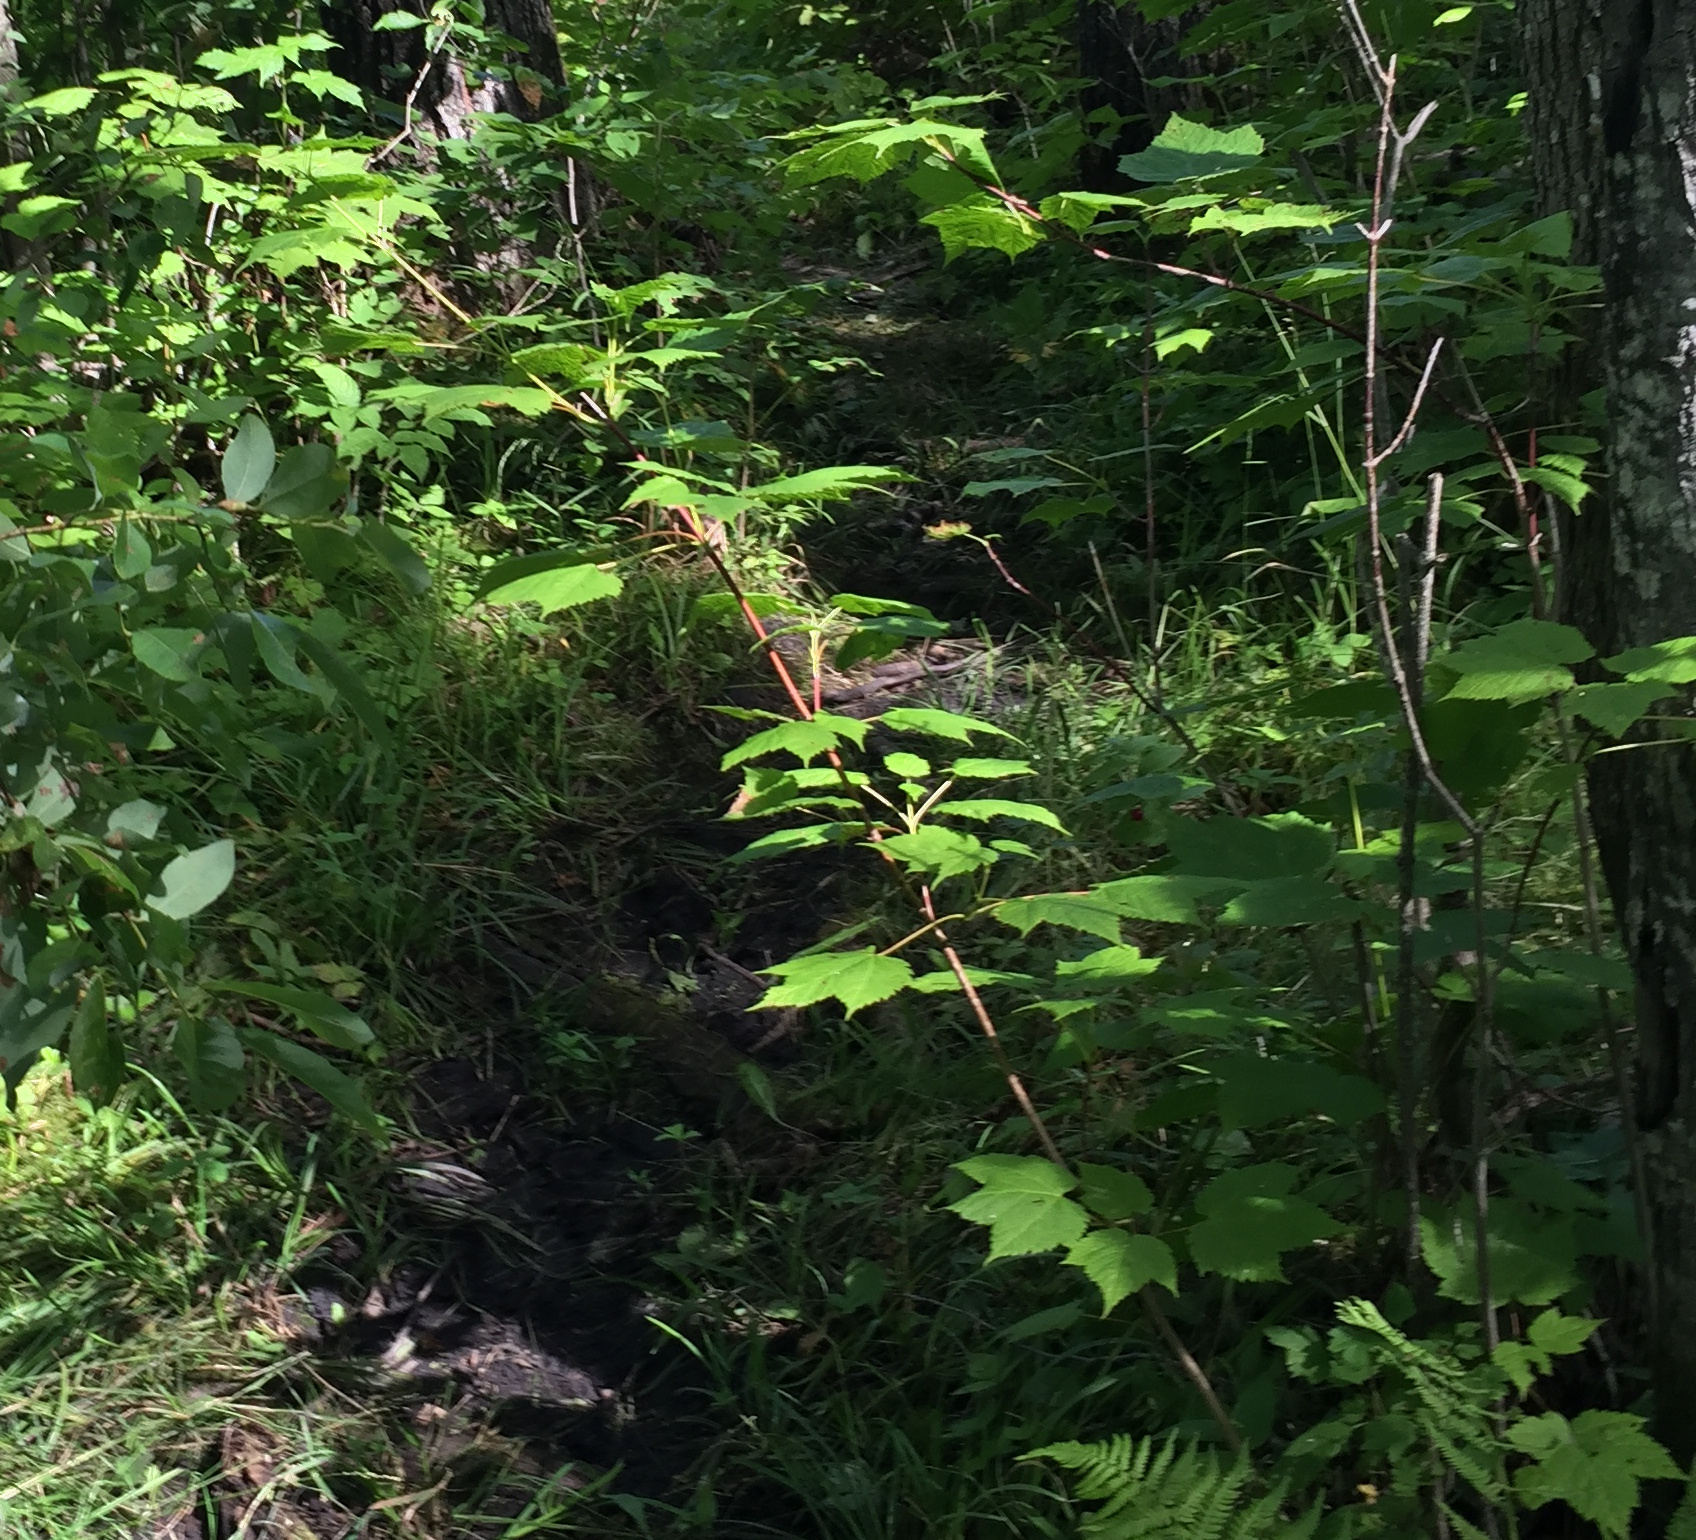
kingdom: Plantae
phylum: Tracheophyta
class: Magnoliopsida
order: Sapindales
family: Sapindaceae
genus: Acer
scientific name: Acer spicatum
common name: Mountain maple
